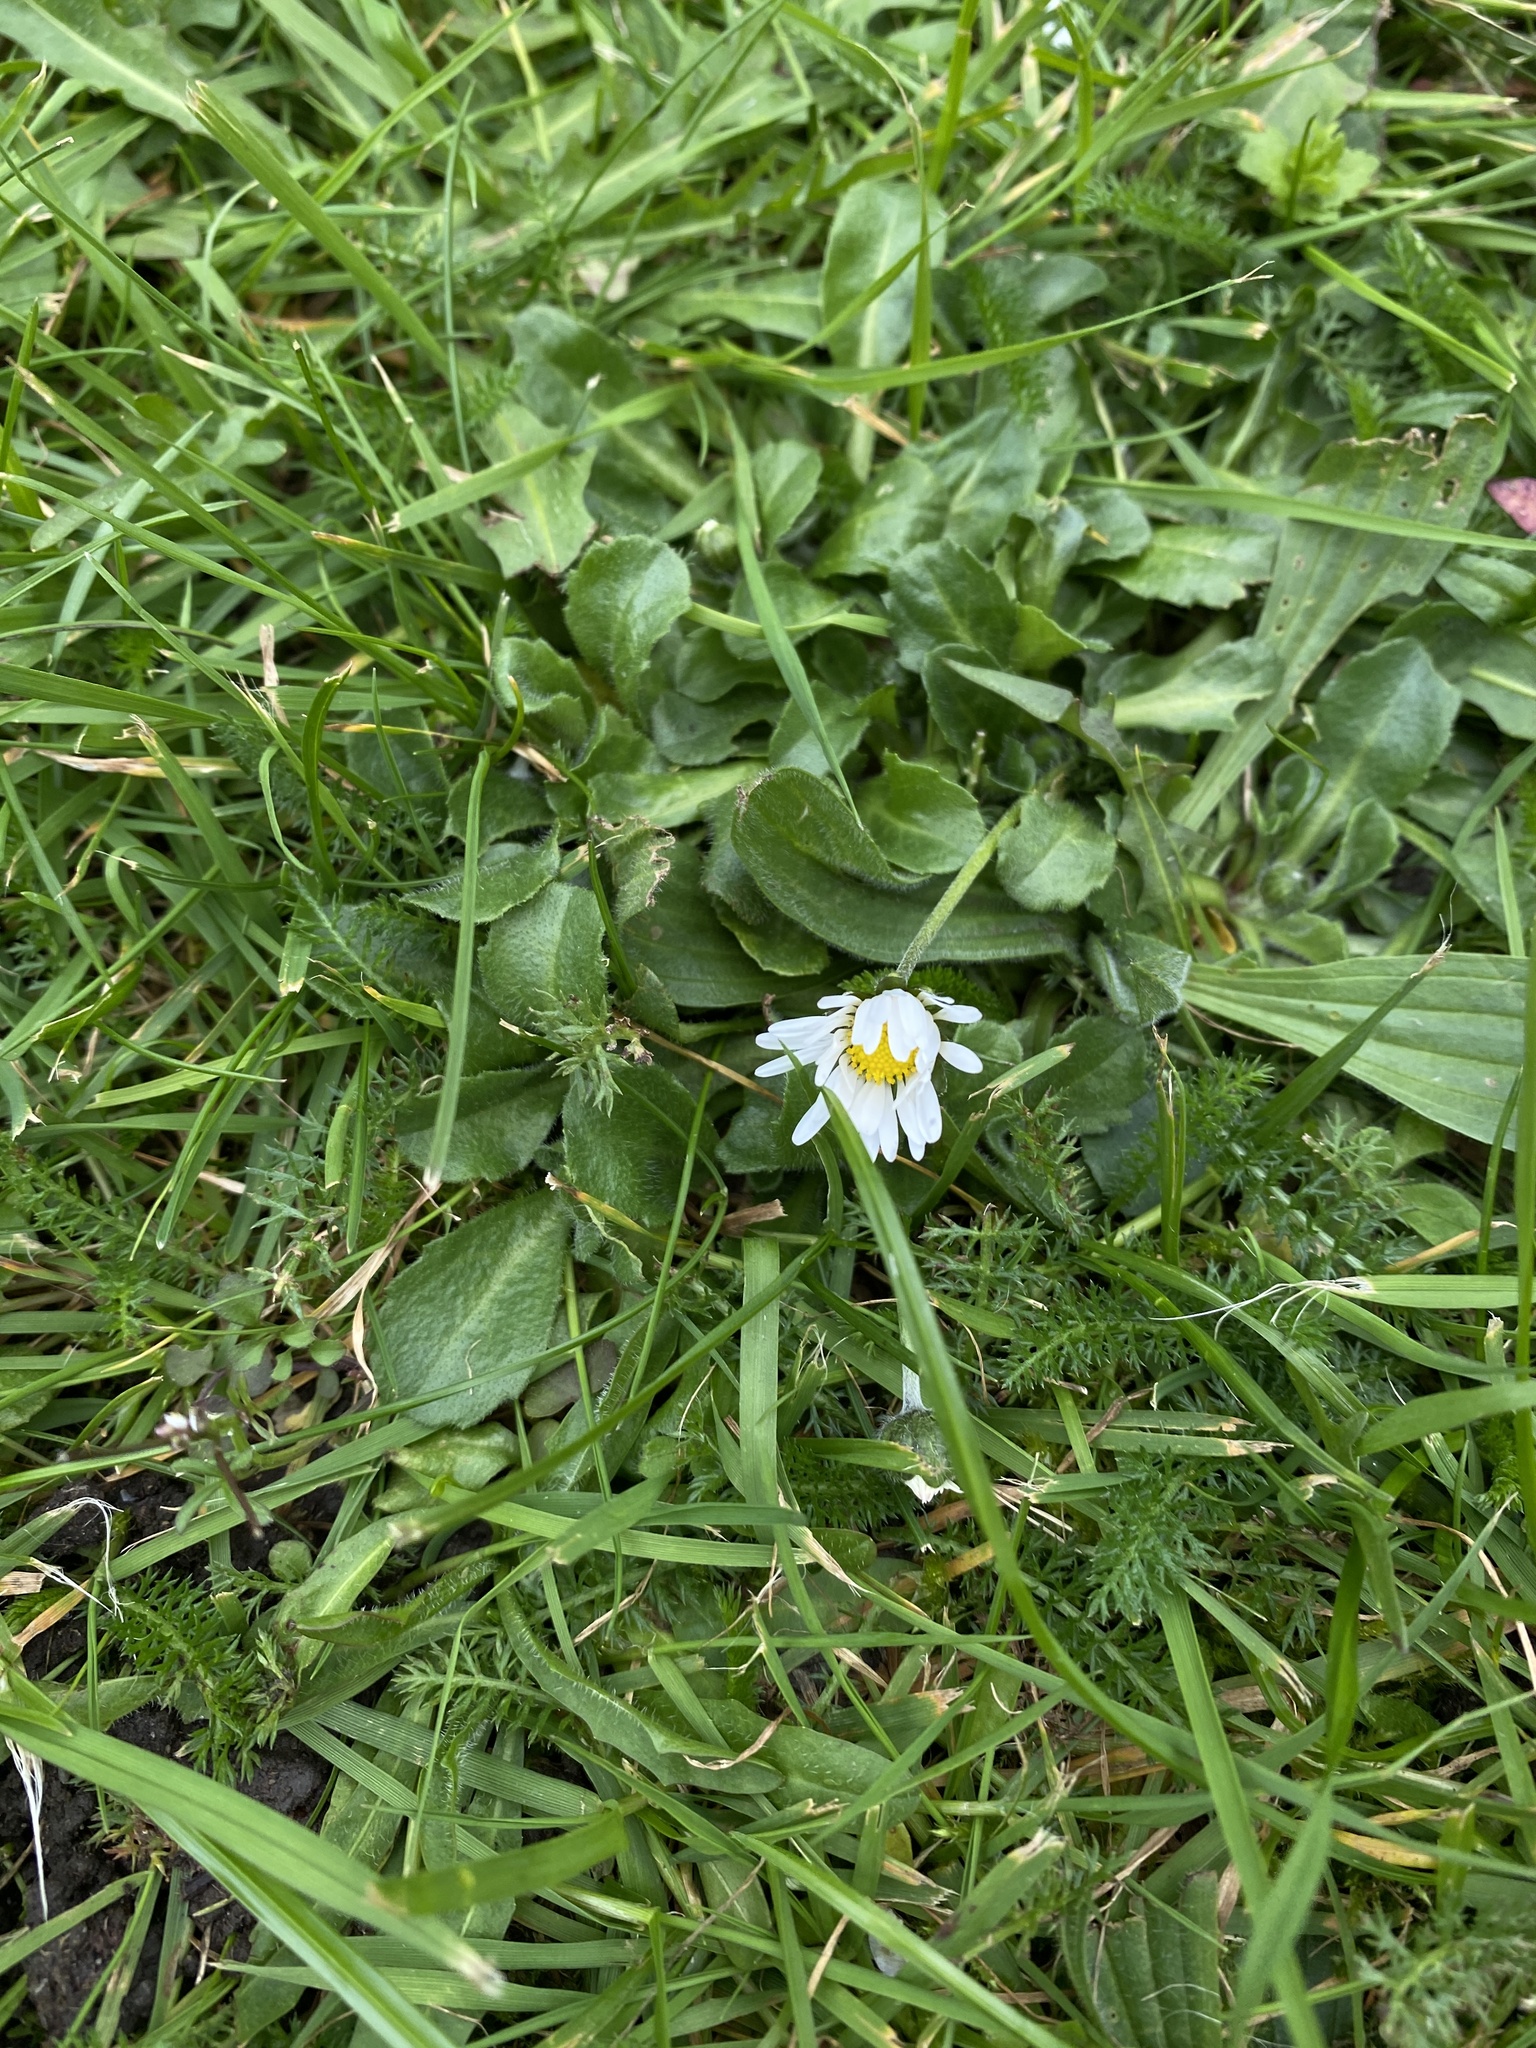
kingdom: Plantae
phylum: Tracheophyta
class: Magnoliopsida
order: Asterales
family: Asteraceae
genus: Bellis
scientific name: Bellis perennis
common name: Lawndaisy
